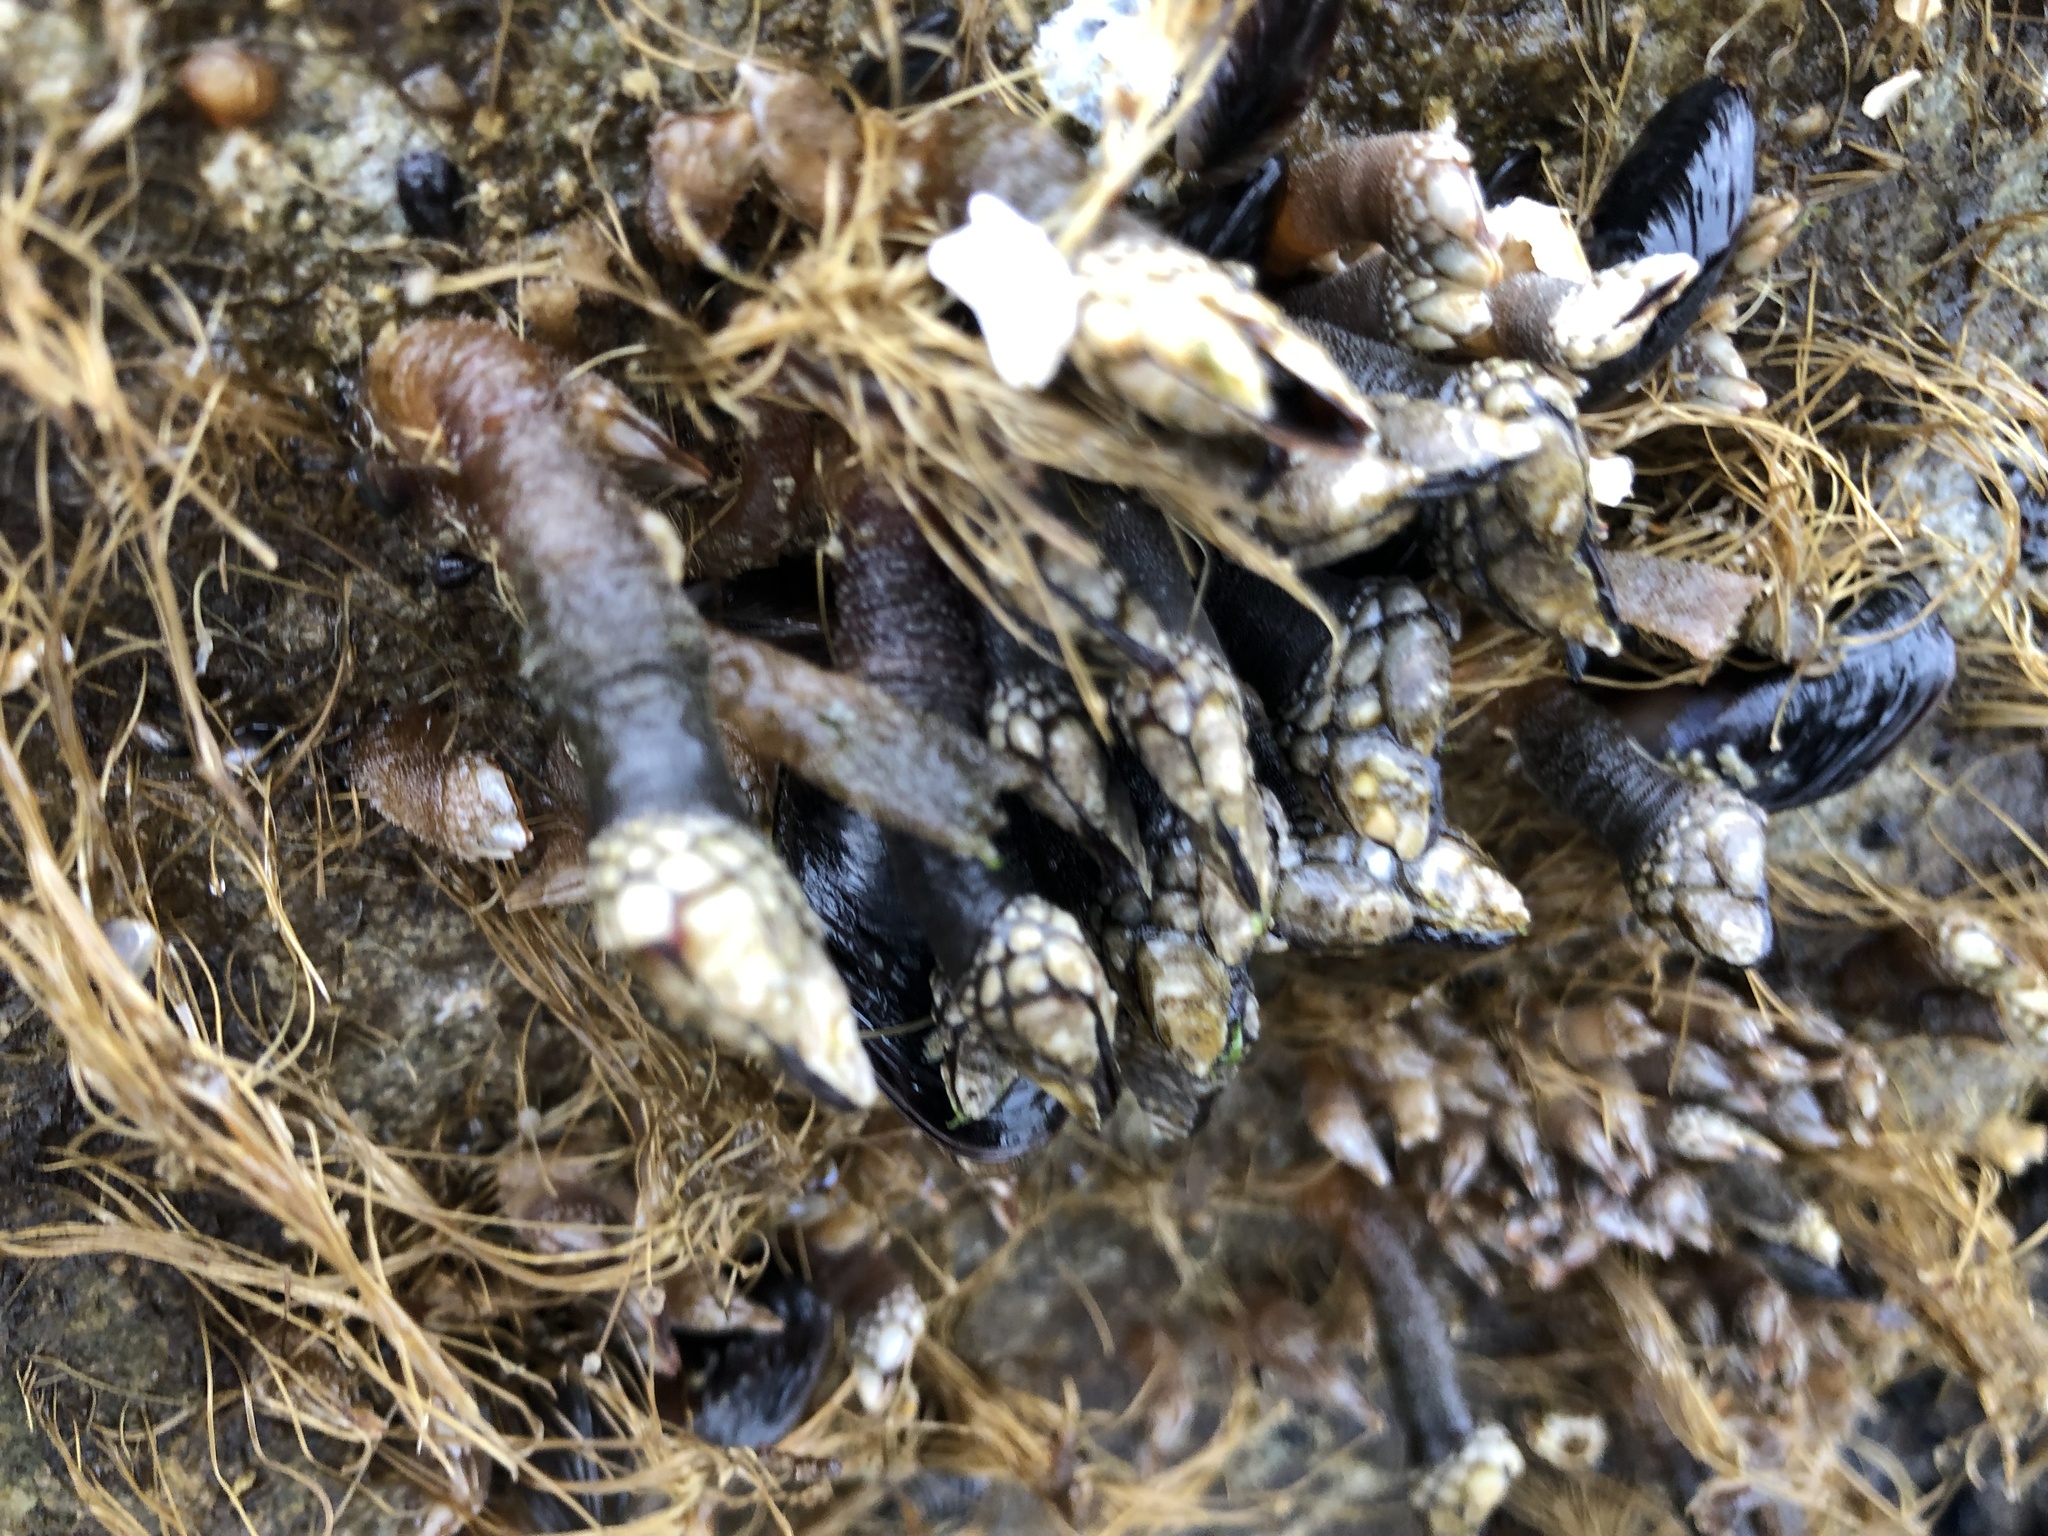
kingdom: Animalia
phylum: Arthropoda
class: Maxillopoda
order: Pedunculata
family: Pollicipedidae
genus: Pollicipes
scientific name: Pollicipes polymerus
